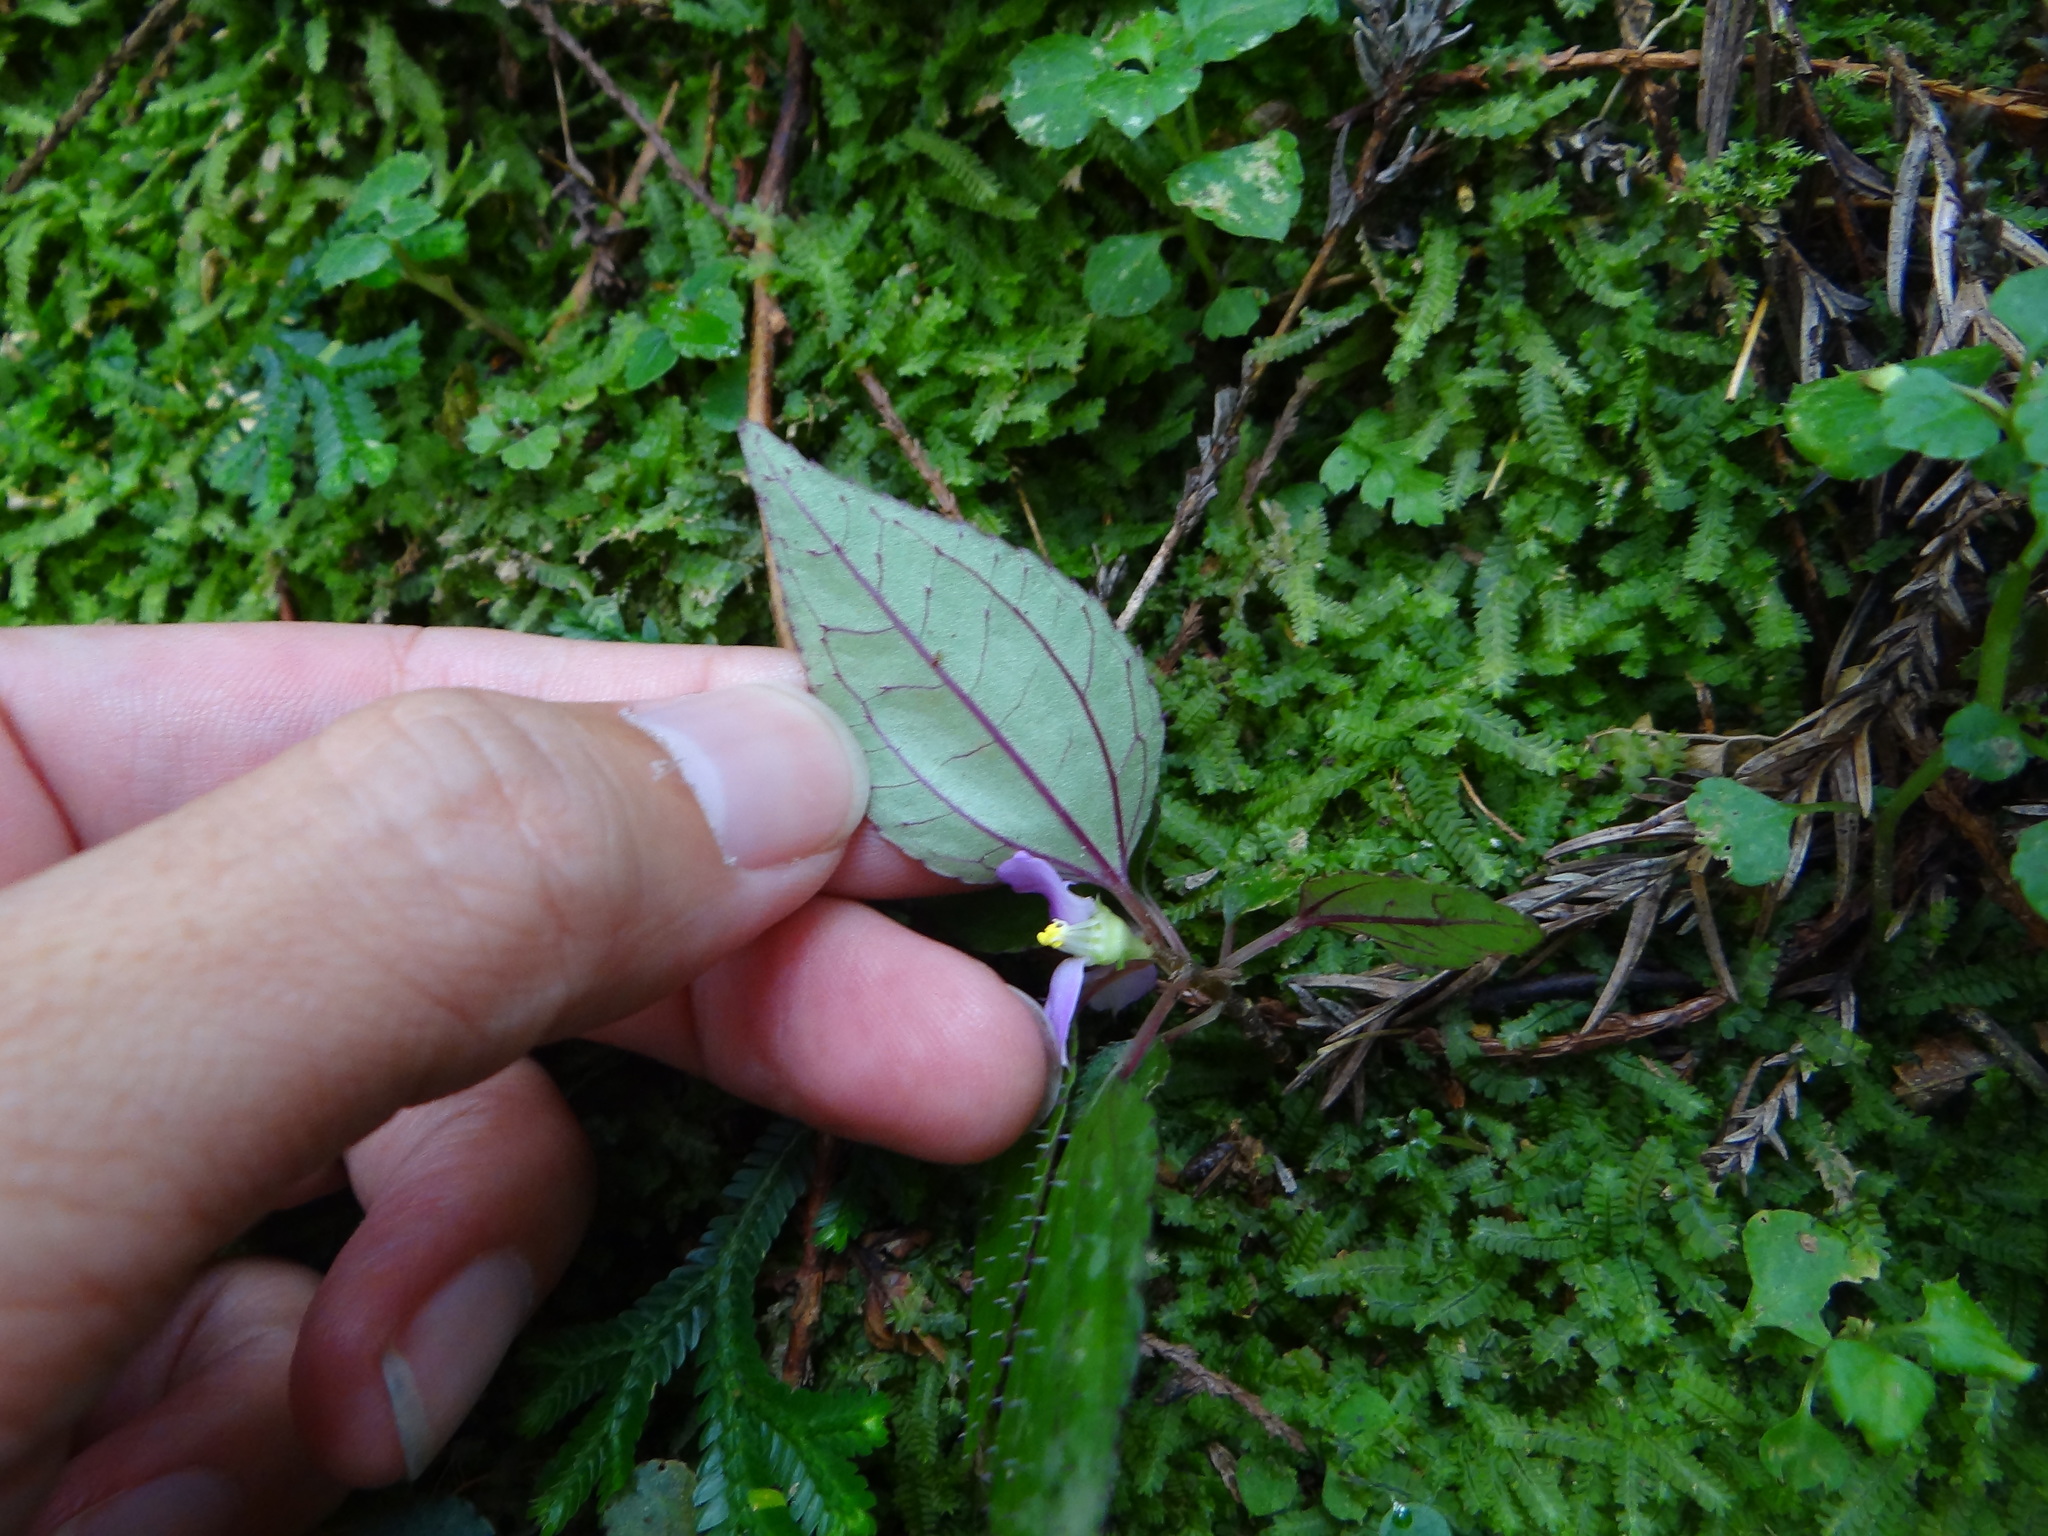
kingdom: Plantae
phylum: Tracheophyta
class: Magnoliopsida
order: Myrtales
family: Melastomataceae
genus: Sarcopyramis
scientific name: Sarcopyramis napalensis
